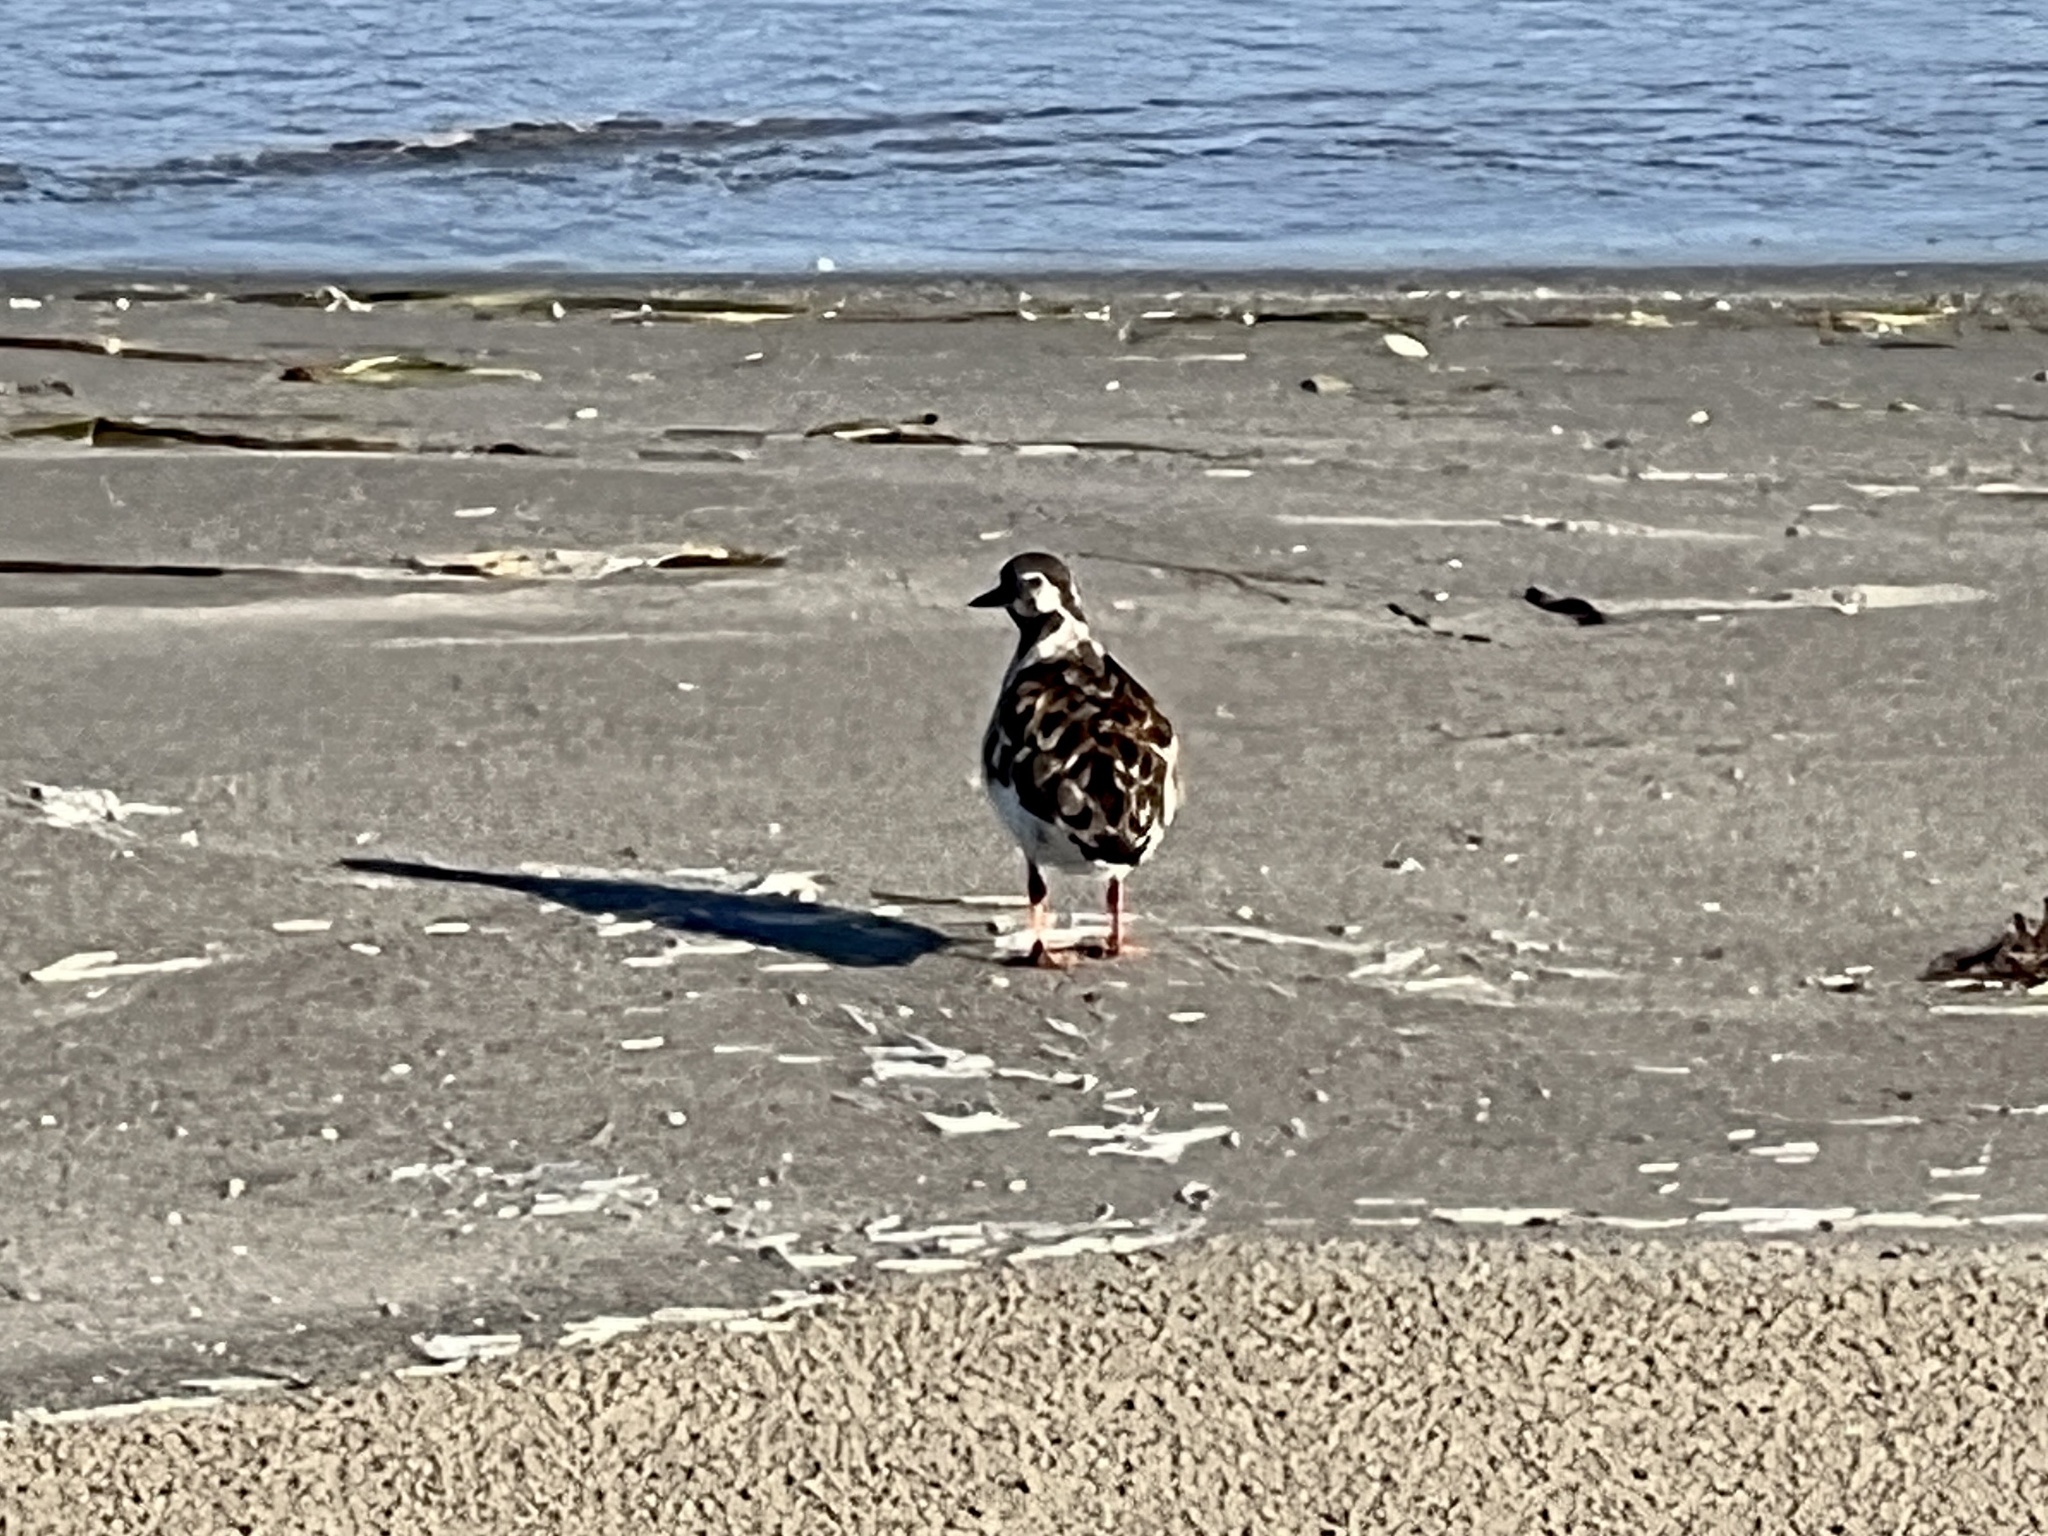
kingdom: Animalia
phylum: Chordata
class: Aves
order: Charadriiformes
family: Scolopacidae
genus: Arenaria
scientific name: Arenaria interpres
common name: Ruddy turnstone
